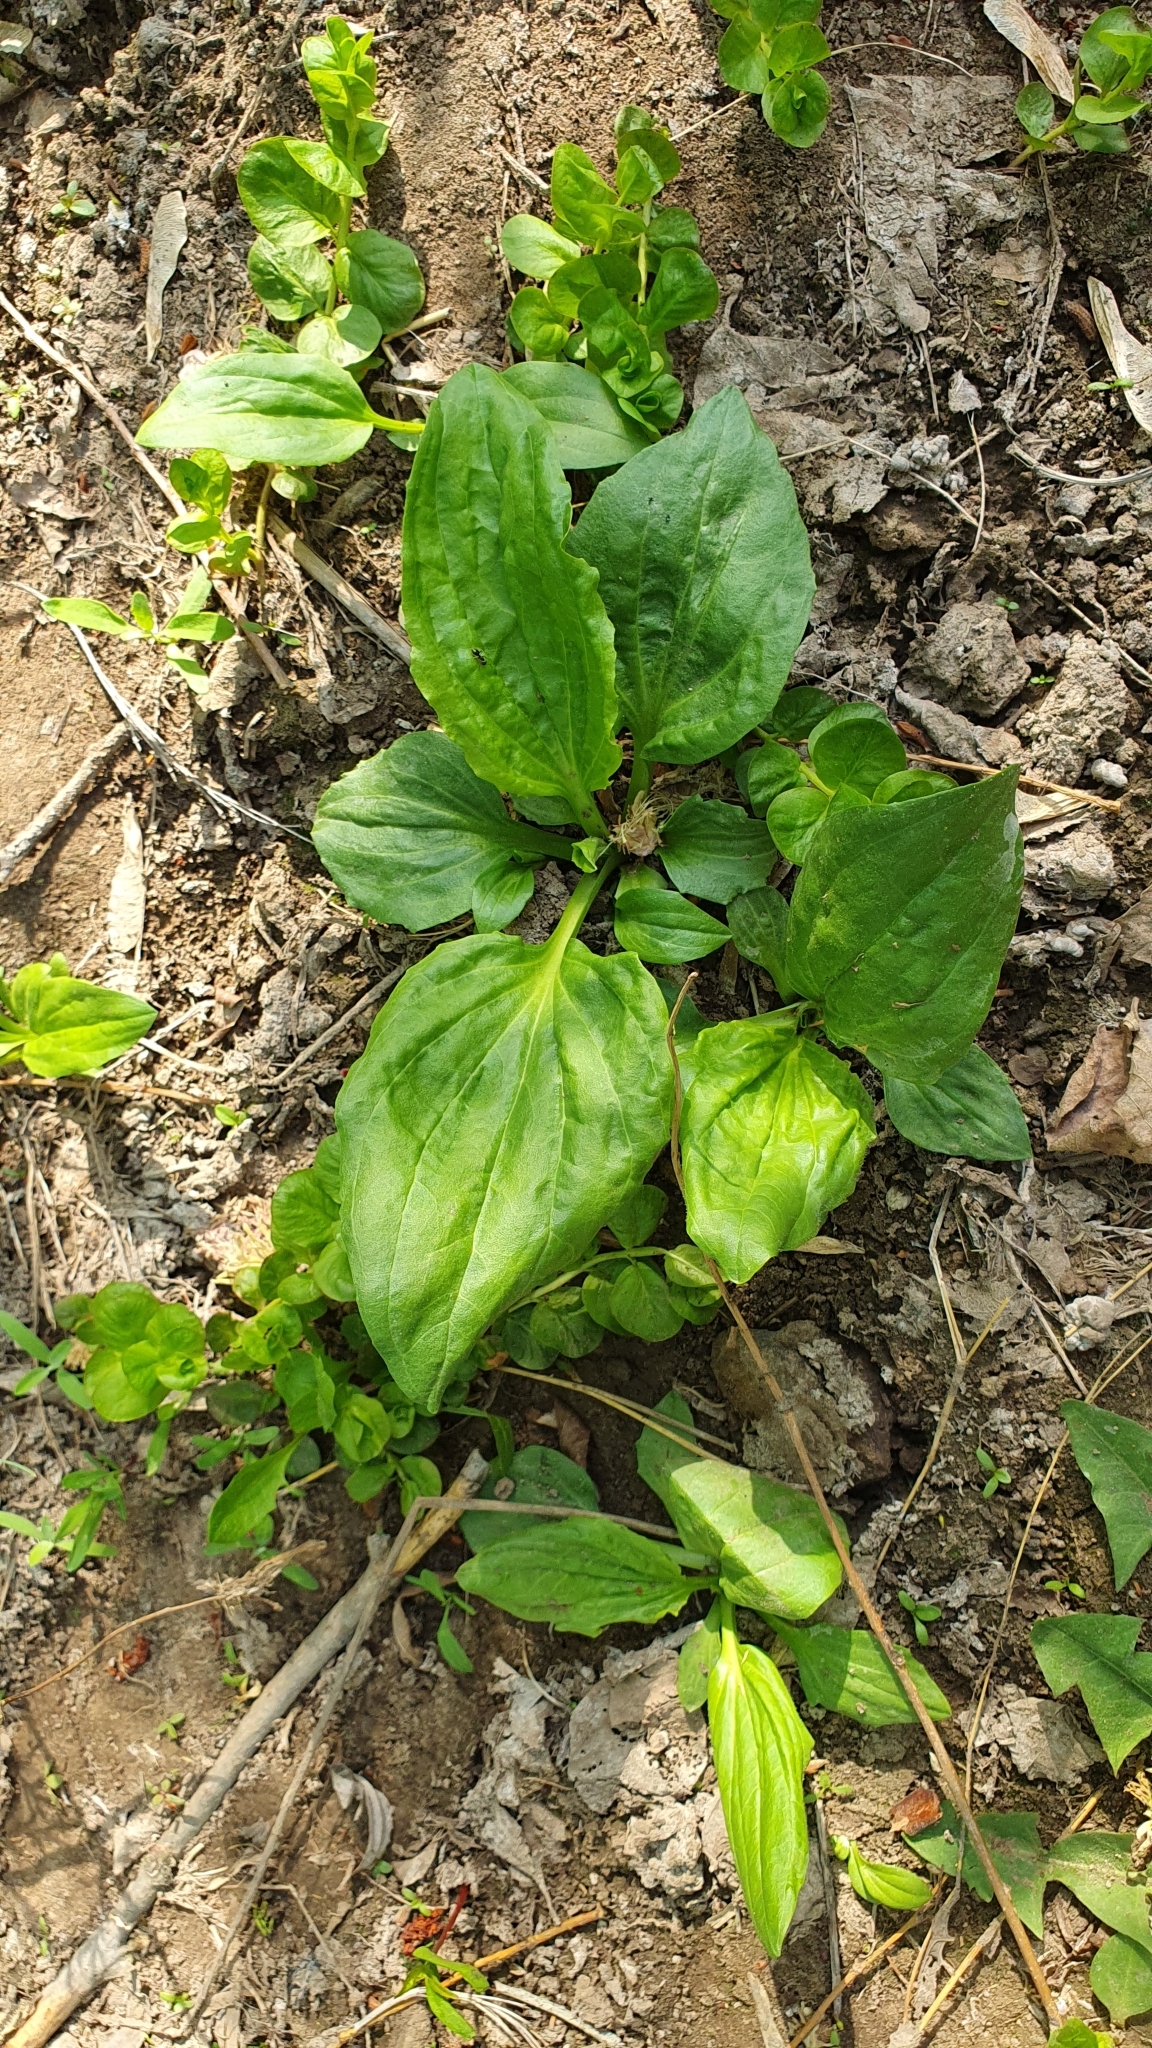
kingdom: Plantae
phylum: Tracheophyta
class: Magnoliopsida
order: Lamiales
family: Plantaginaceae
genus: Plantago
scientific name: Plantago major
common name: Common plantain
